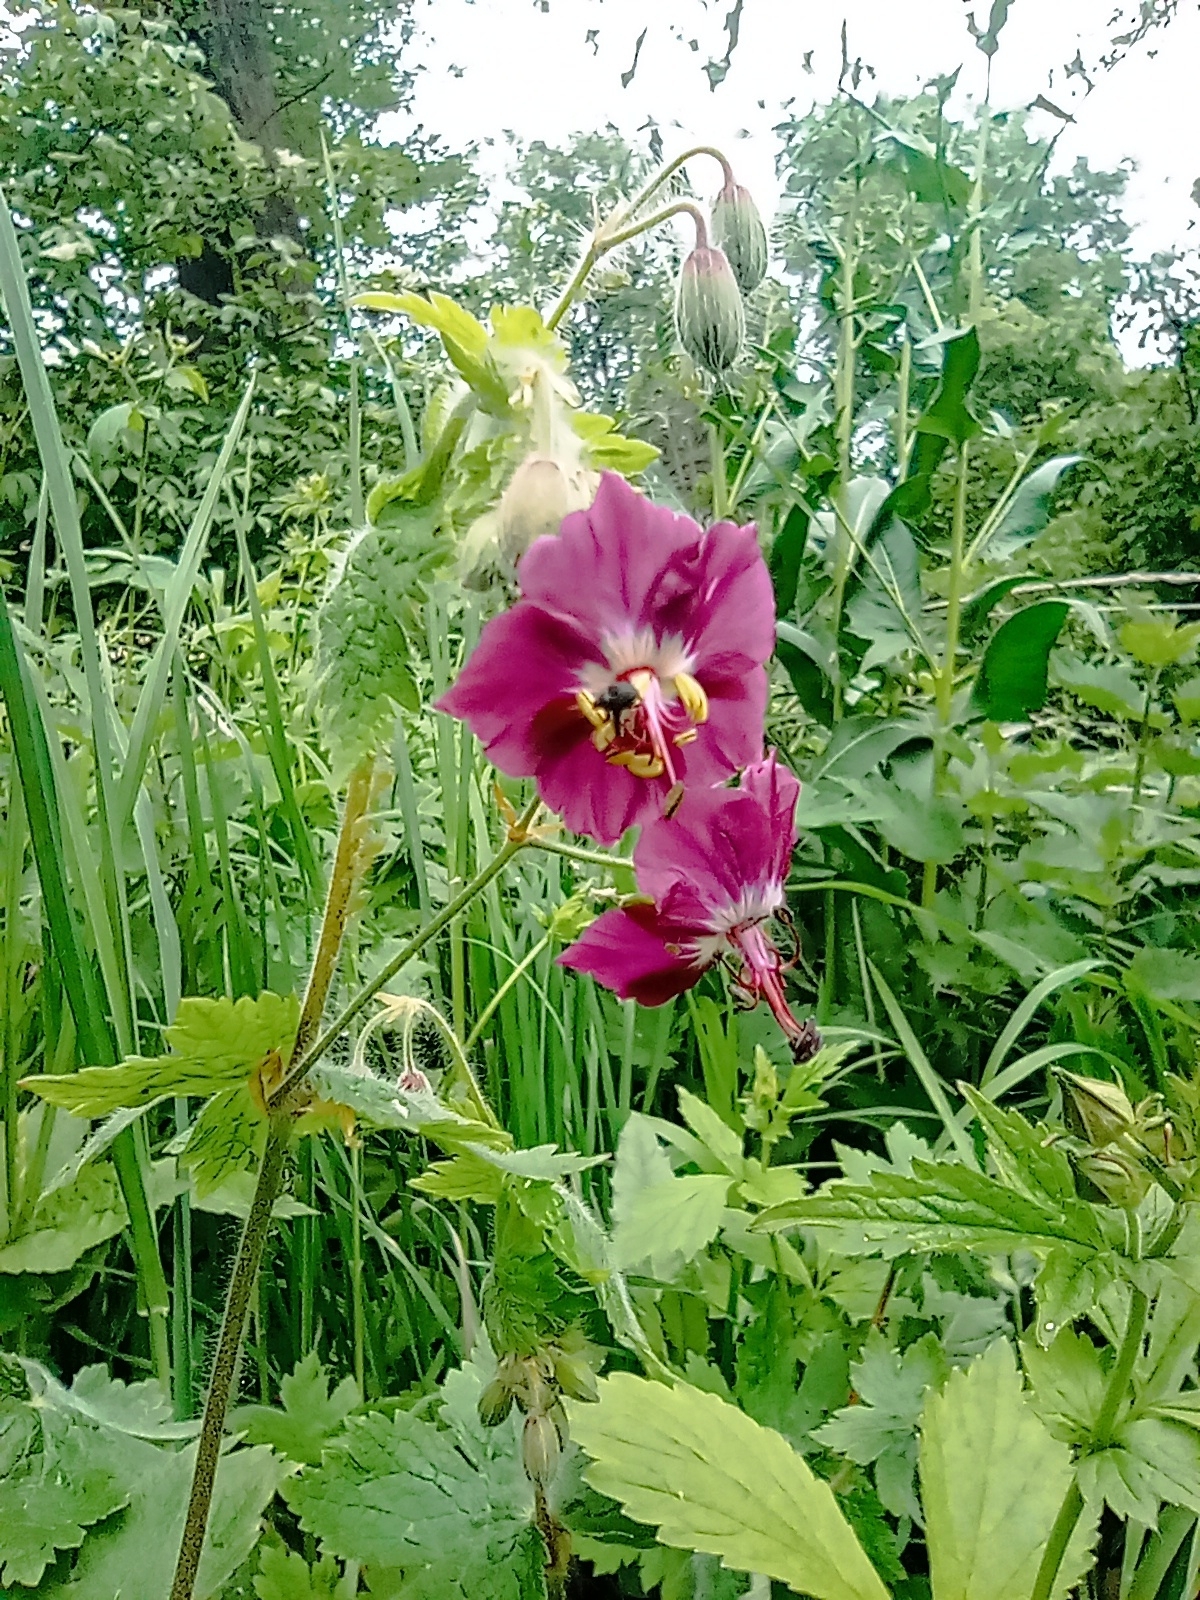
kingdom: Plantae
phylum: Tracheophyta
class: Magnoliopsida
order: Geraniales
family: Geraniaceae
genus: Geranium
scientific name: Geranium phaeum
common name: Dusky crane's-bill
